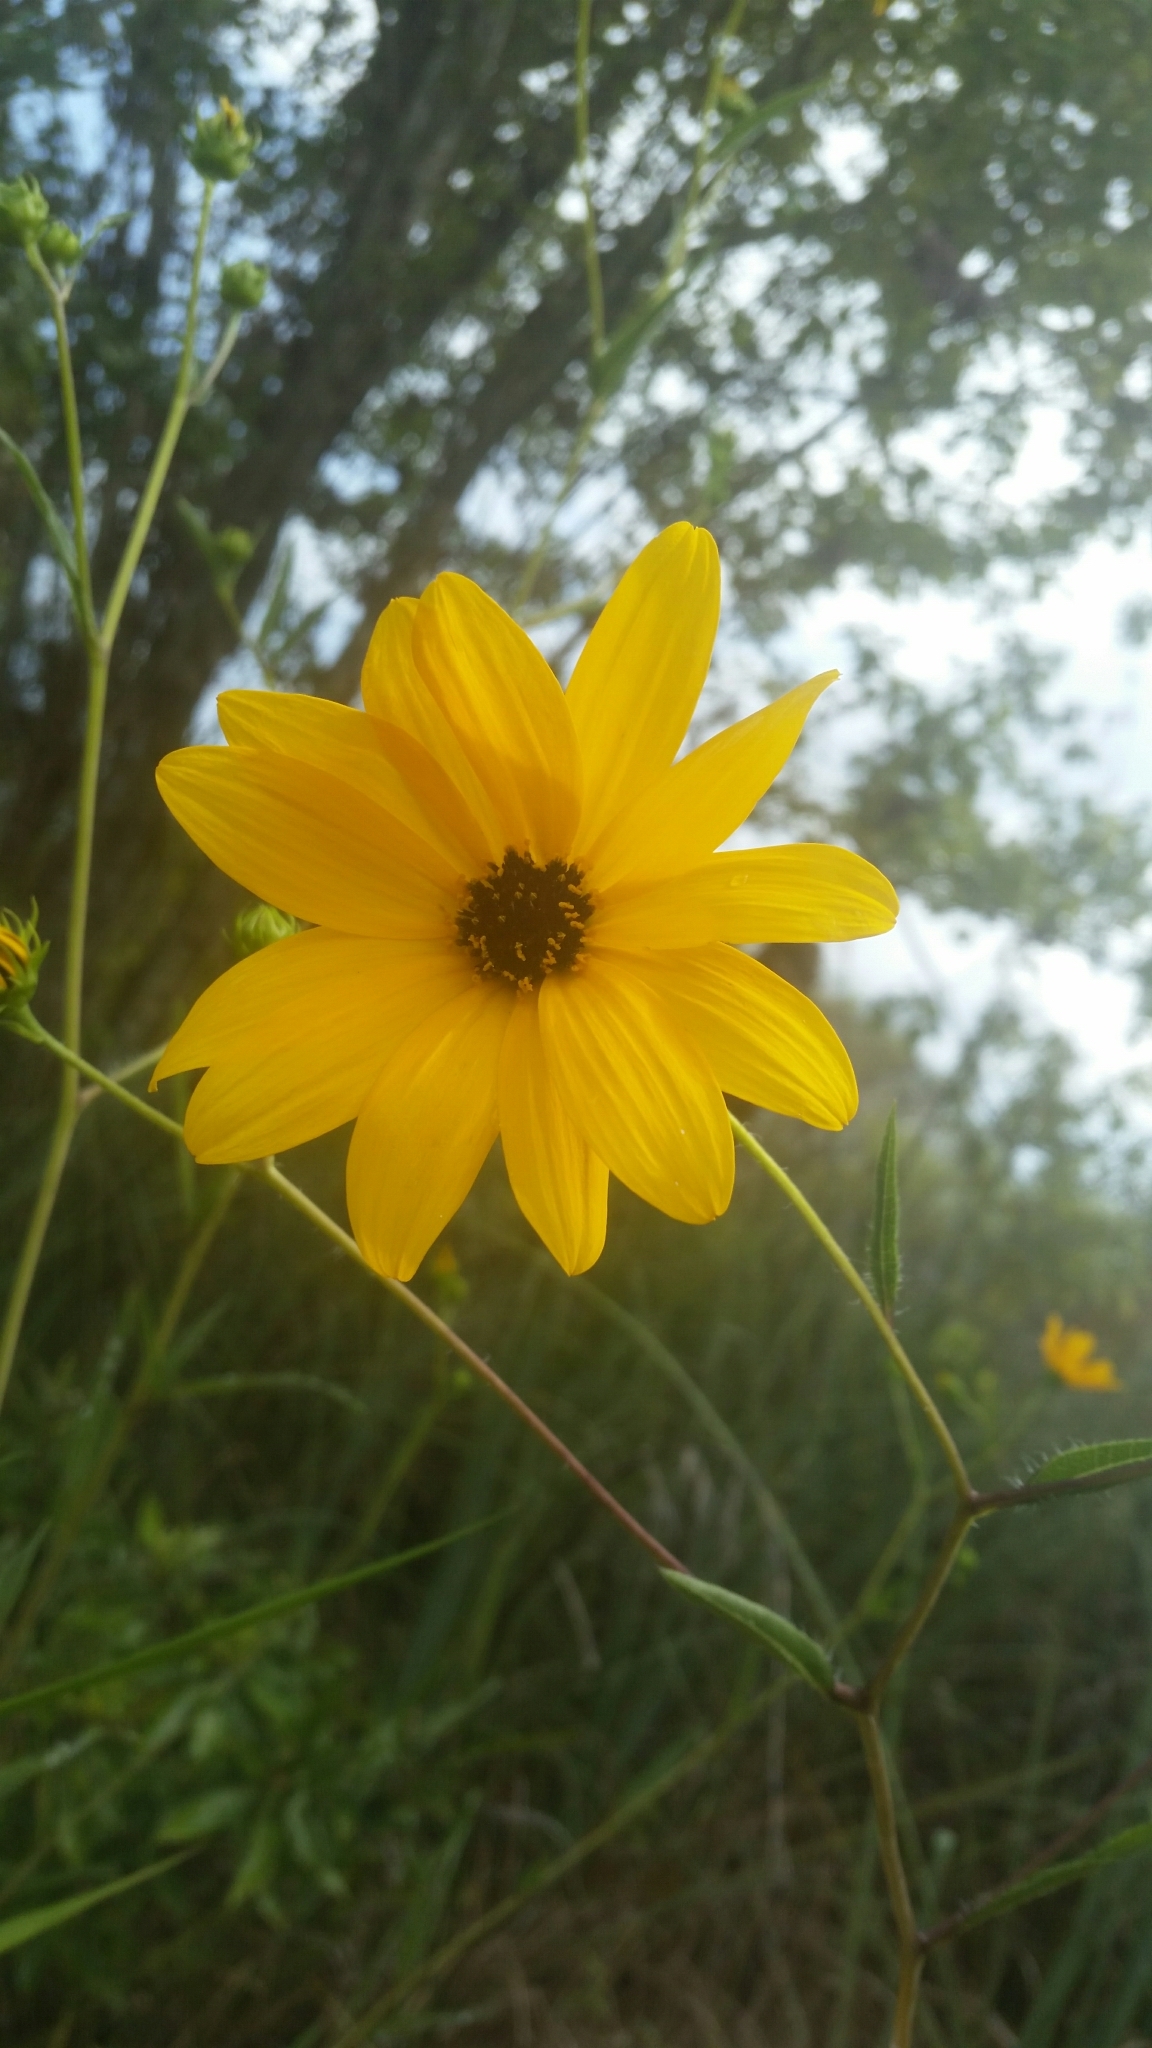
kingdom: Plantae
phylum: Tracheophyta
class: Magnoliopsida
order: Asterales
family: Asteraceae
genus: Helianthus
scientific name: Helianthus agrestis
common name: Rural sunflower
